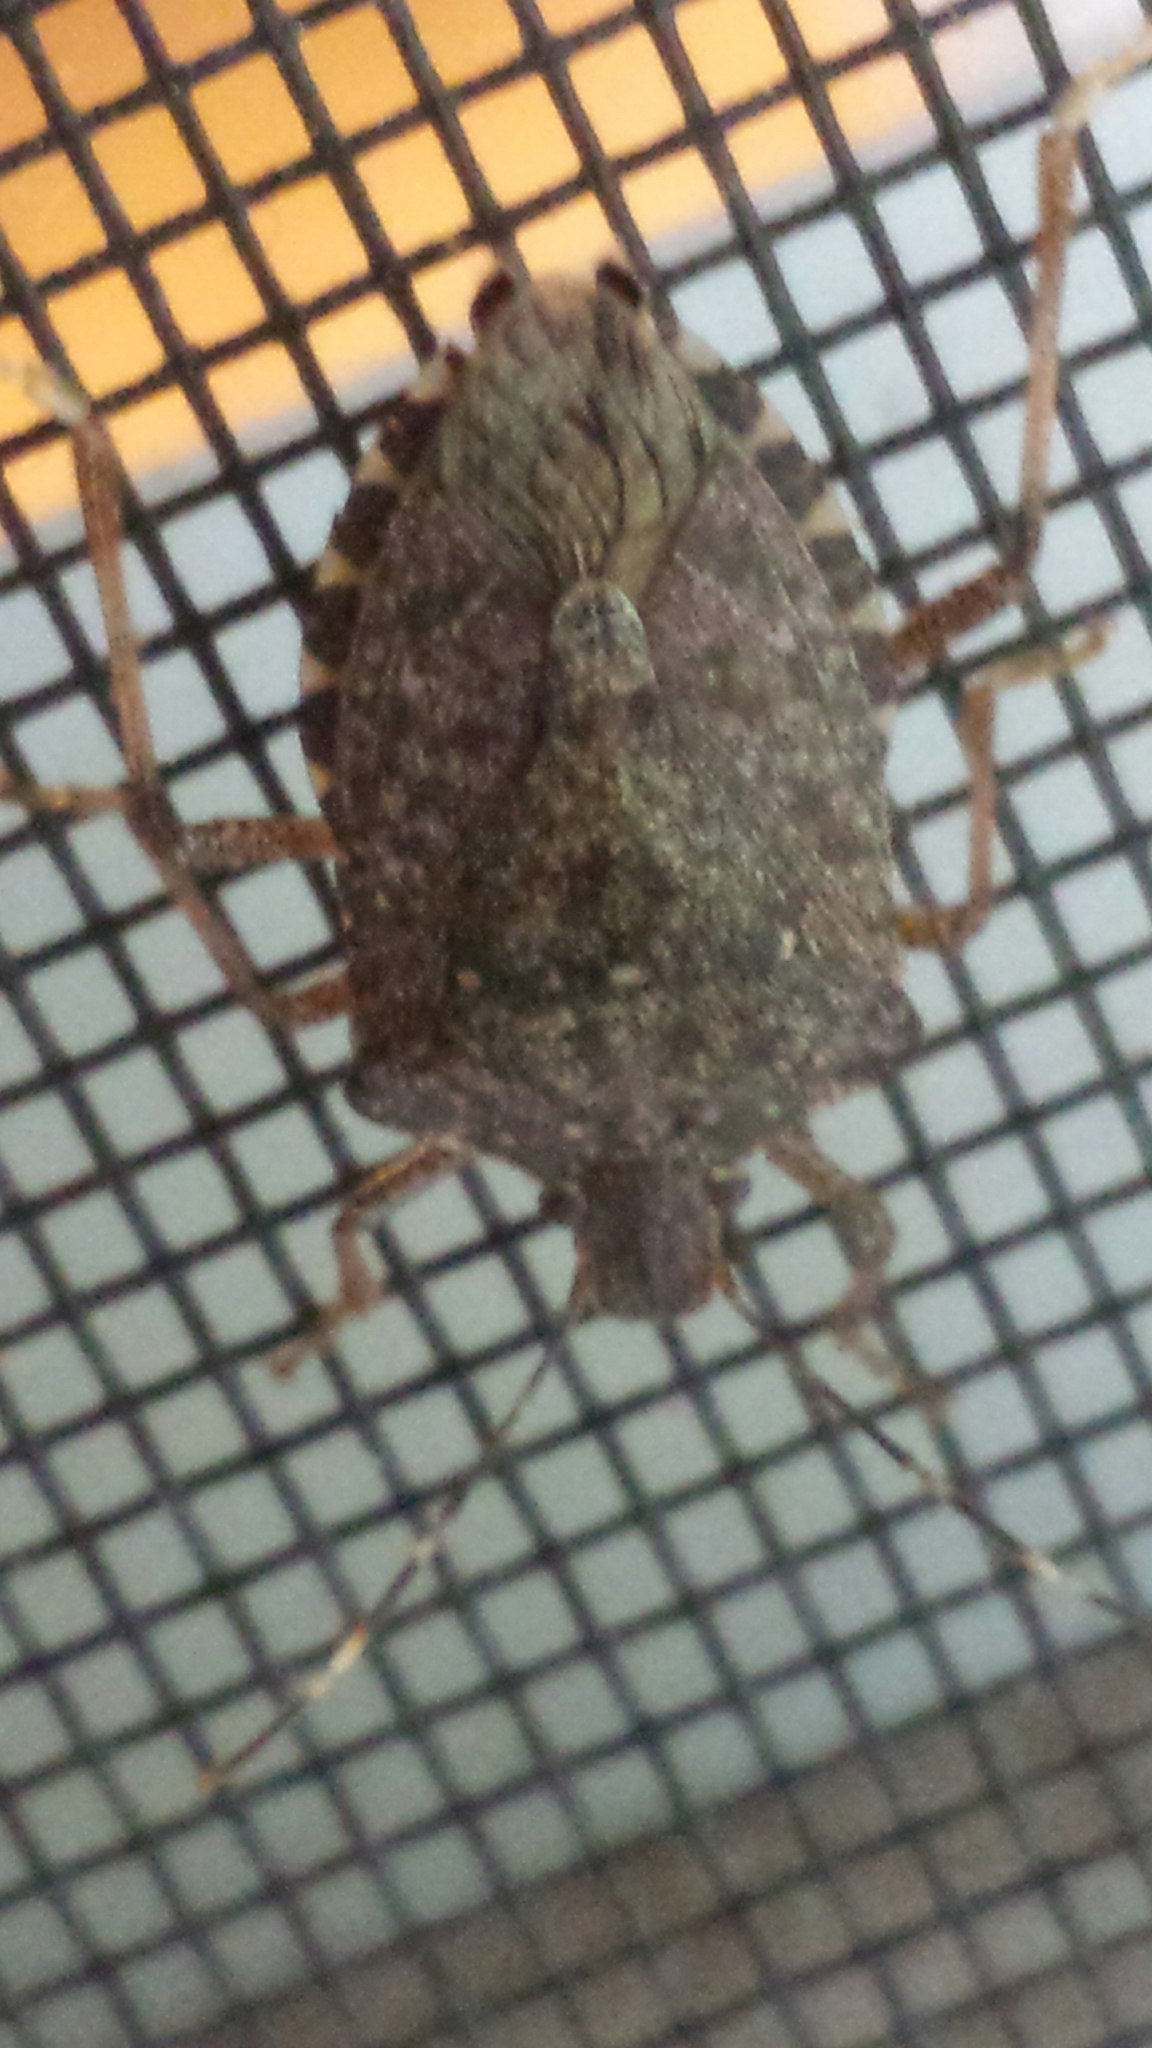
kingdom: Animalia
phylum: Arthropoda
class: Insecta
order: Hemiptera
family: Pentatomidae
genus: Halyomorpha
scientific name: Halyomorpha halys
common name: Brown marmorated stink bug
